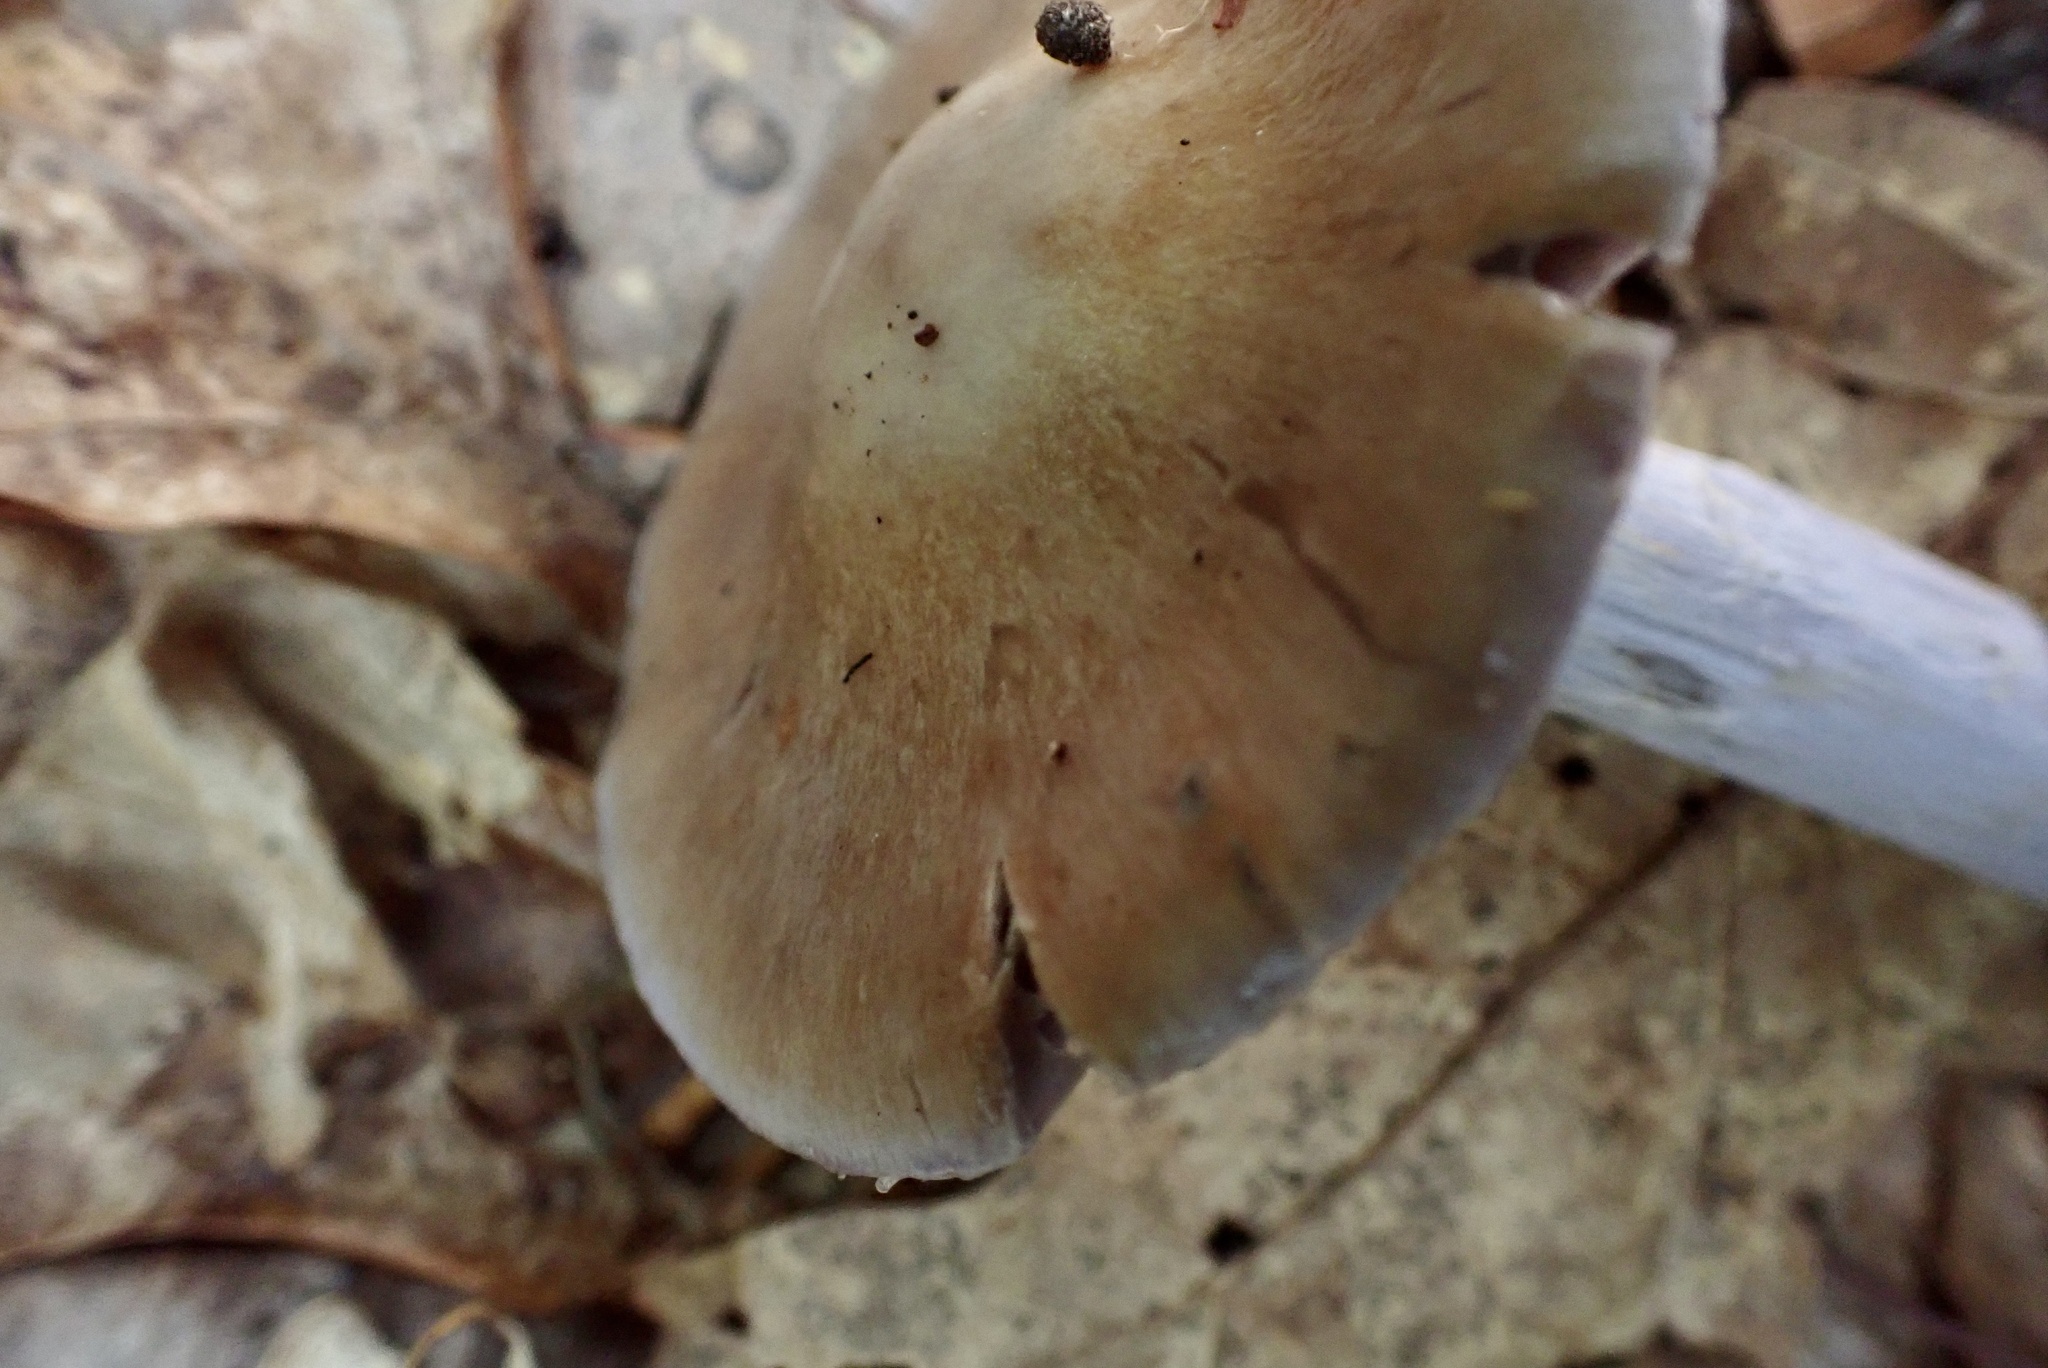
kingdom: Fungi
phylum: Basidiomycota
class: Agaricomycetes
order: Agaricales
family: Cortinariaceae
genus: Cortinarius
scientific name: Cortinarius splendidus
